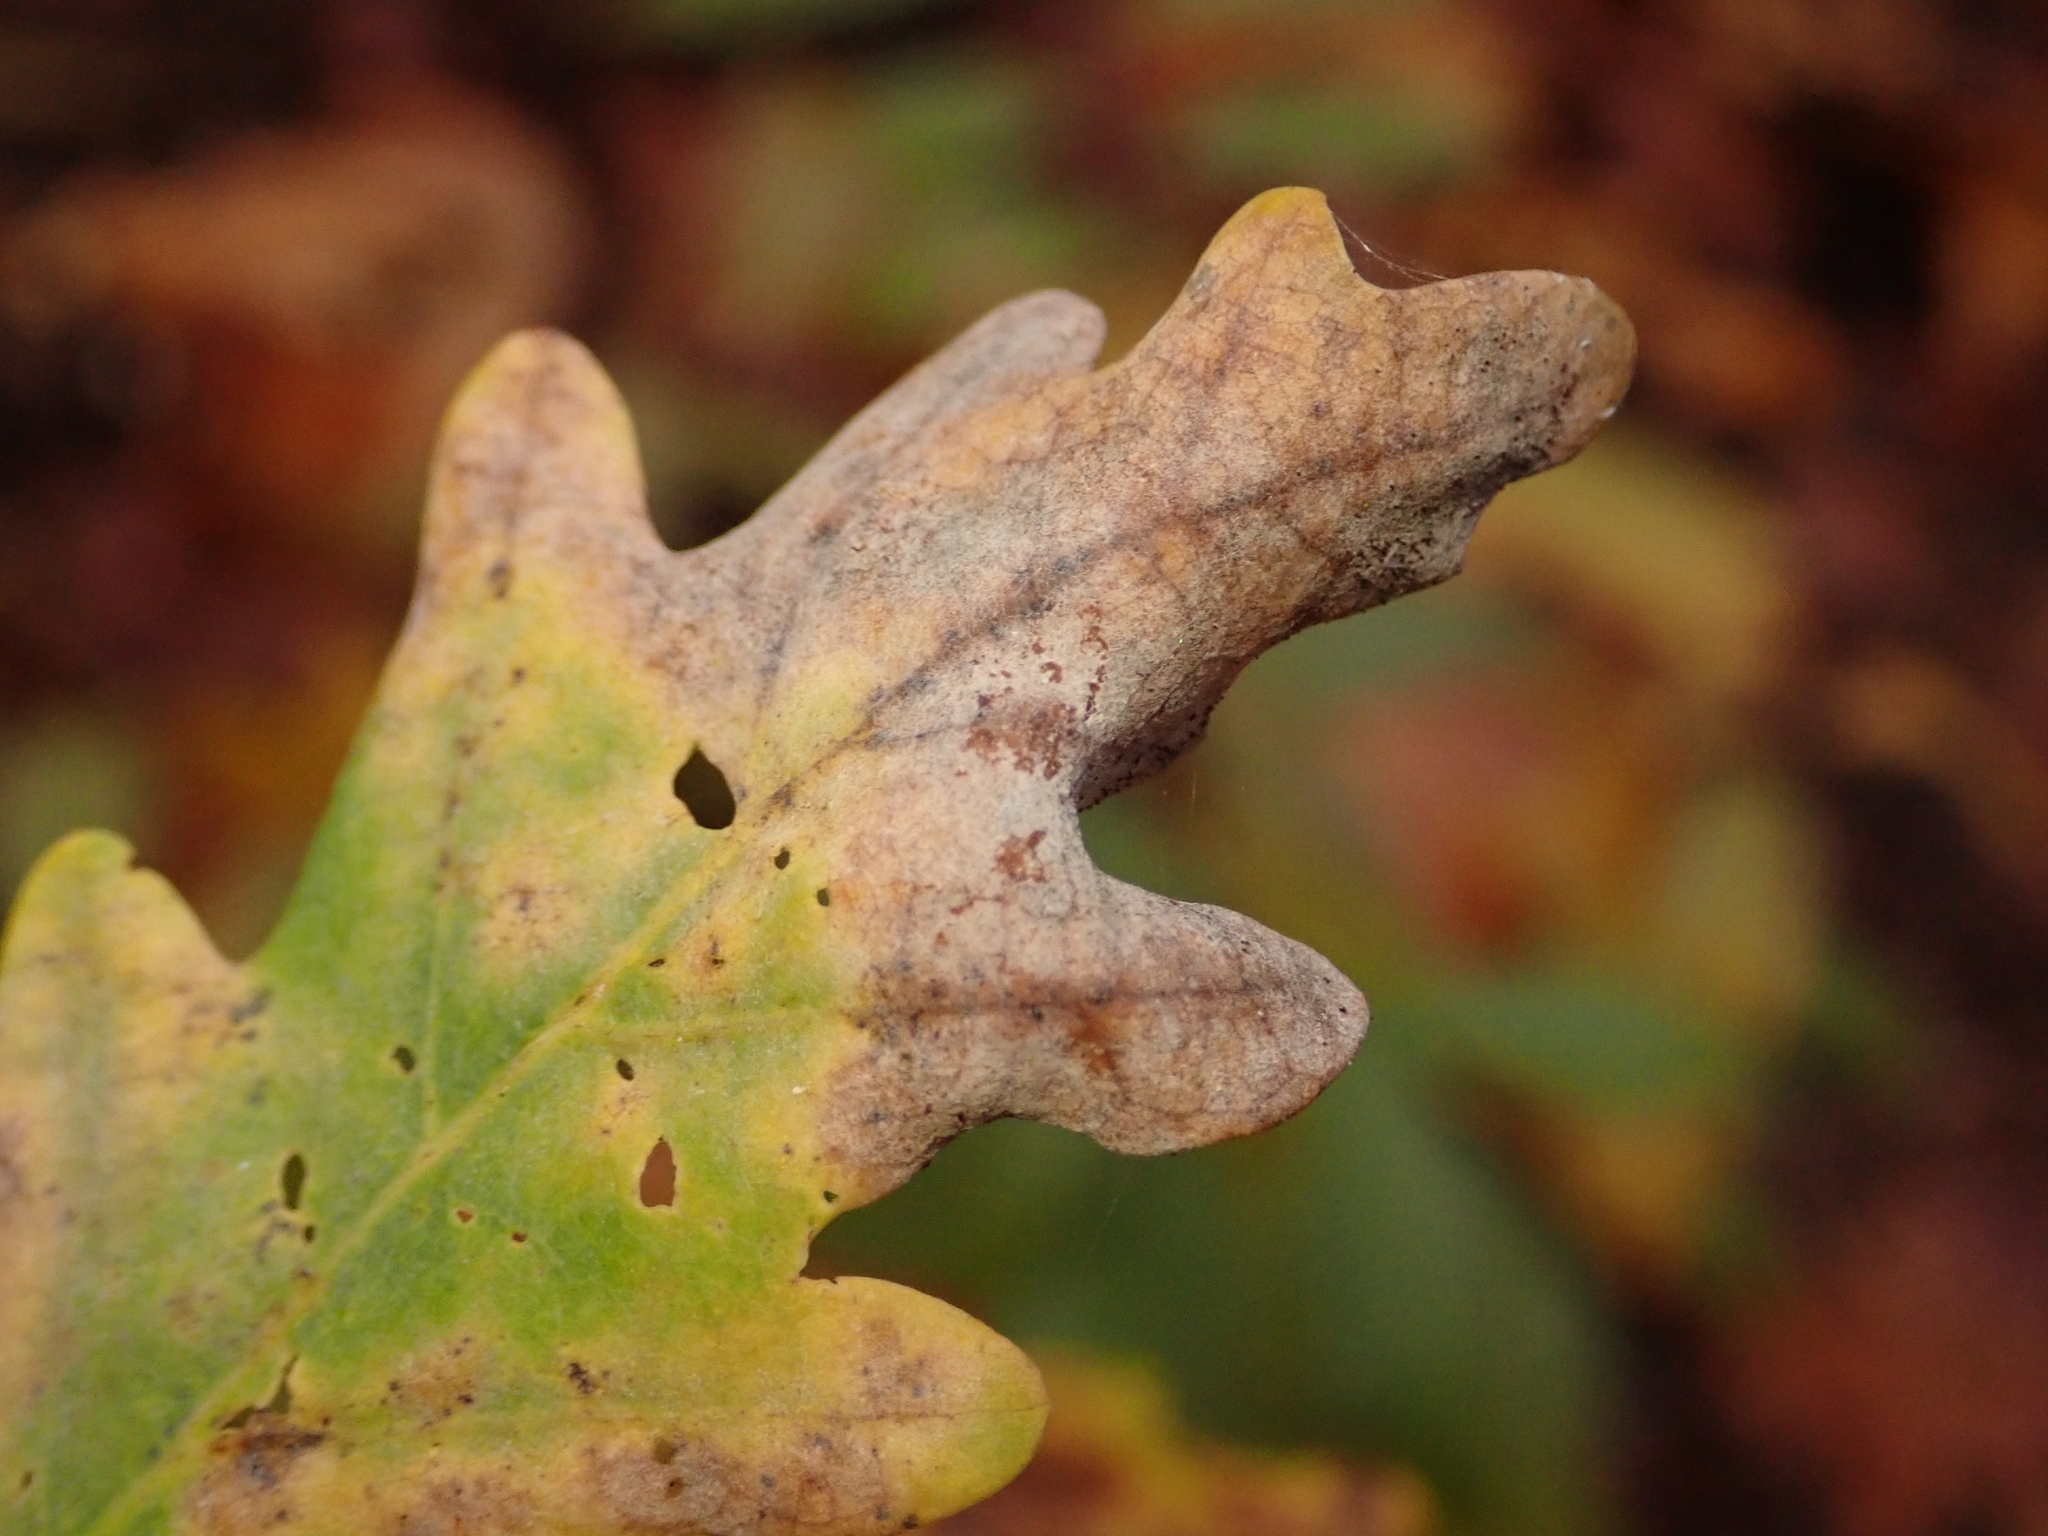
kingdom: Fungi
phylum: Ascomycota
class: Leotiomycetes
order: Helotiales
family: Erysiphaceae
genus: Erysiphe
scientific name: Erysiphe
